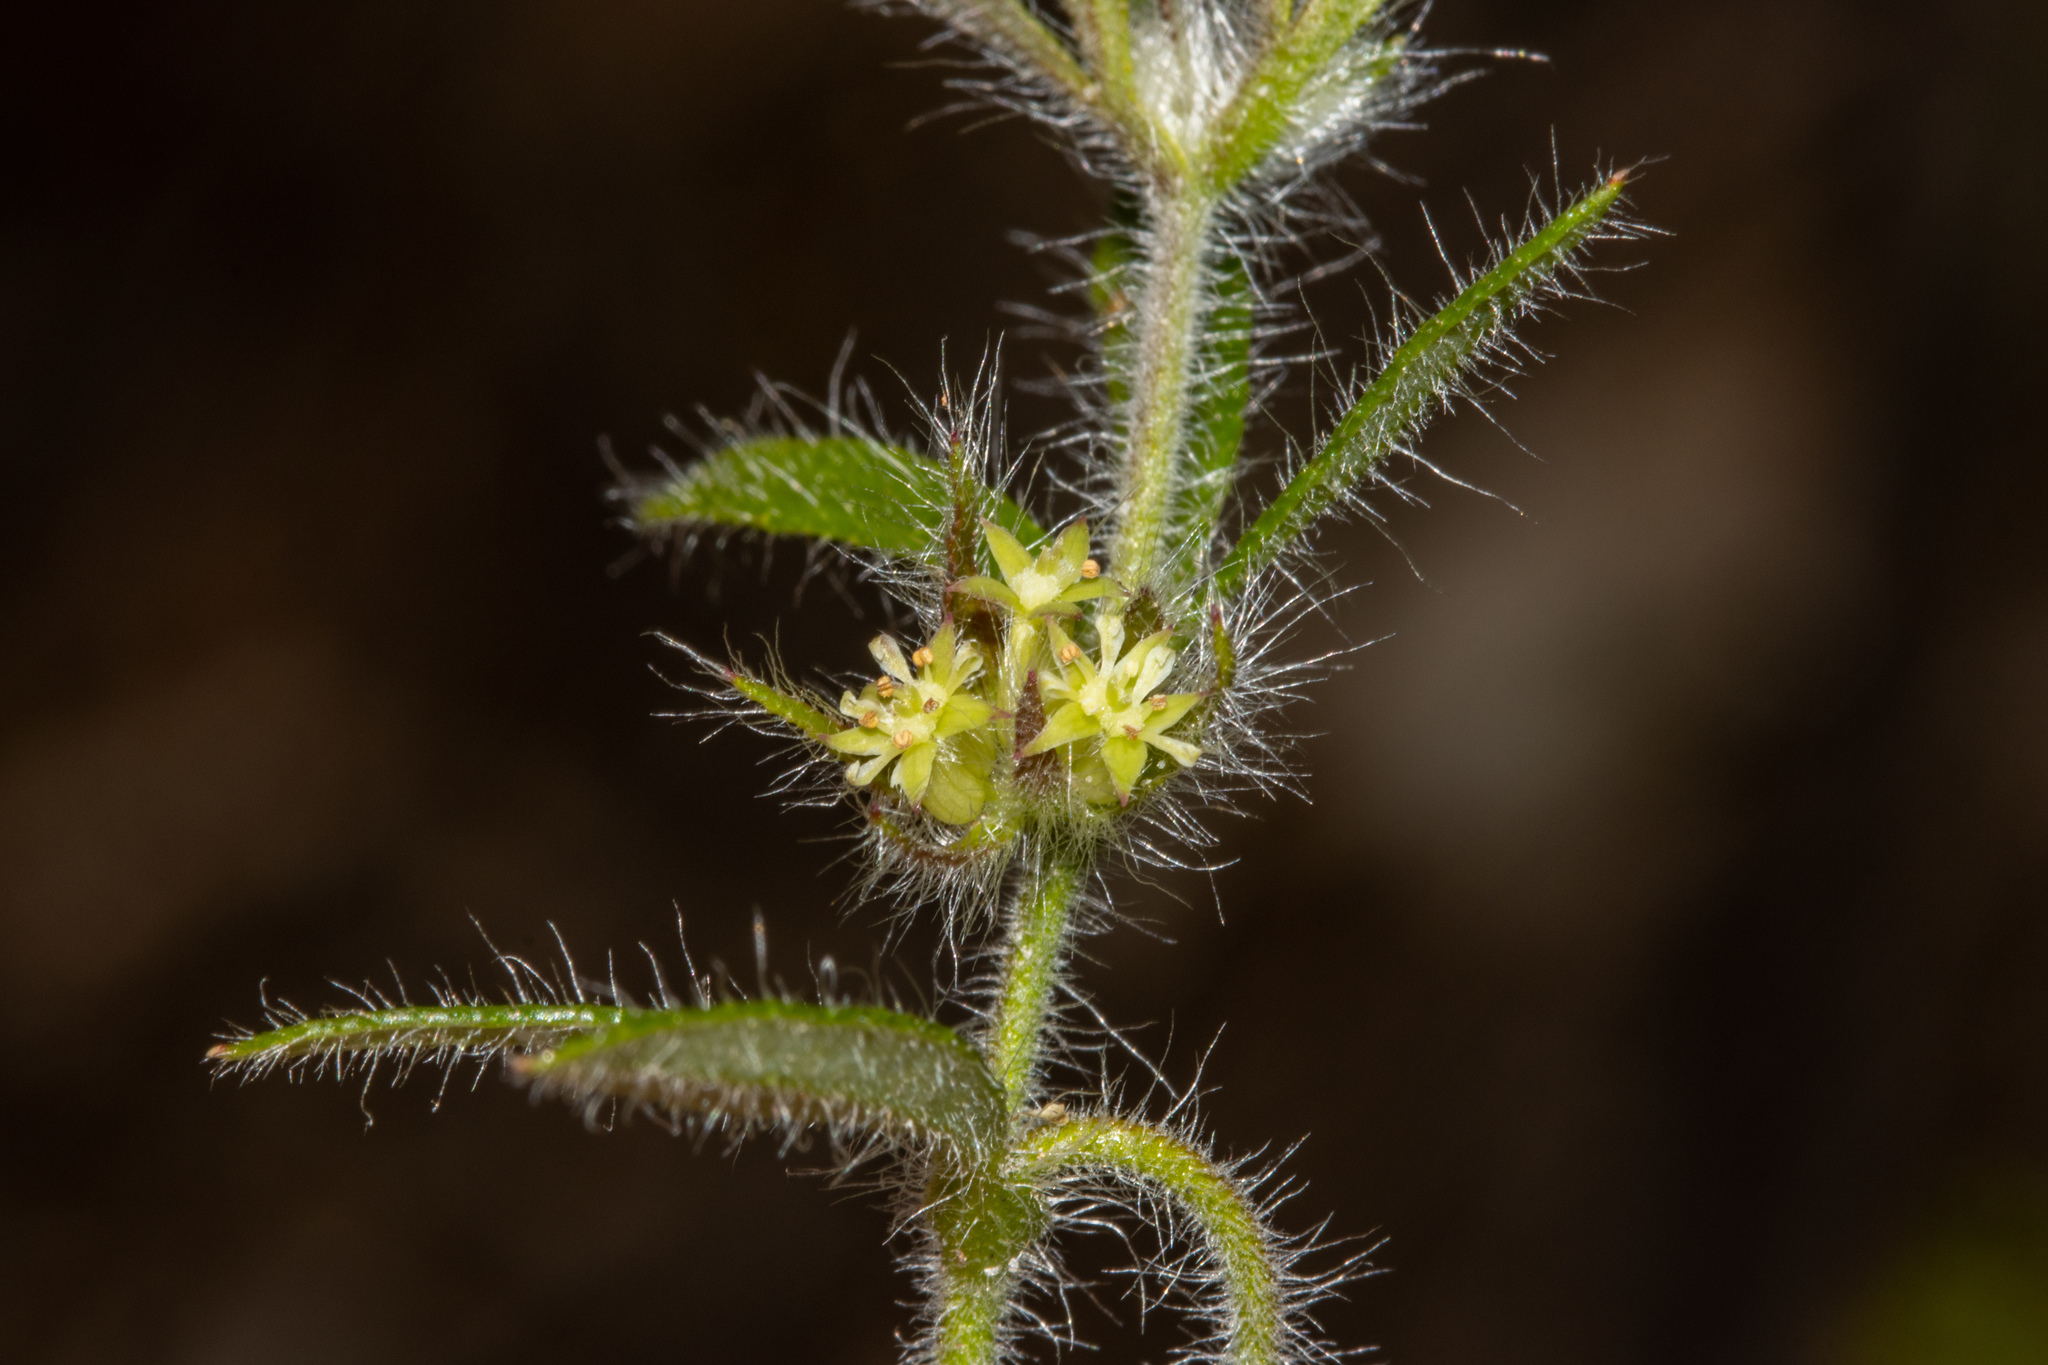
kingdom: Plantae
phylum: Tracheophyta
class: Magnoliopsida
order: Apiales
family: Apiaceae
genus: Xanthosia
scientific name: Xanthosia huegelii
